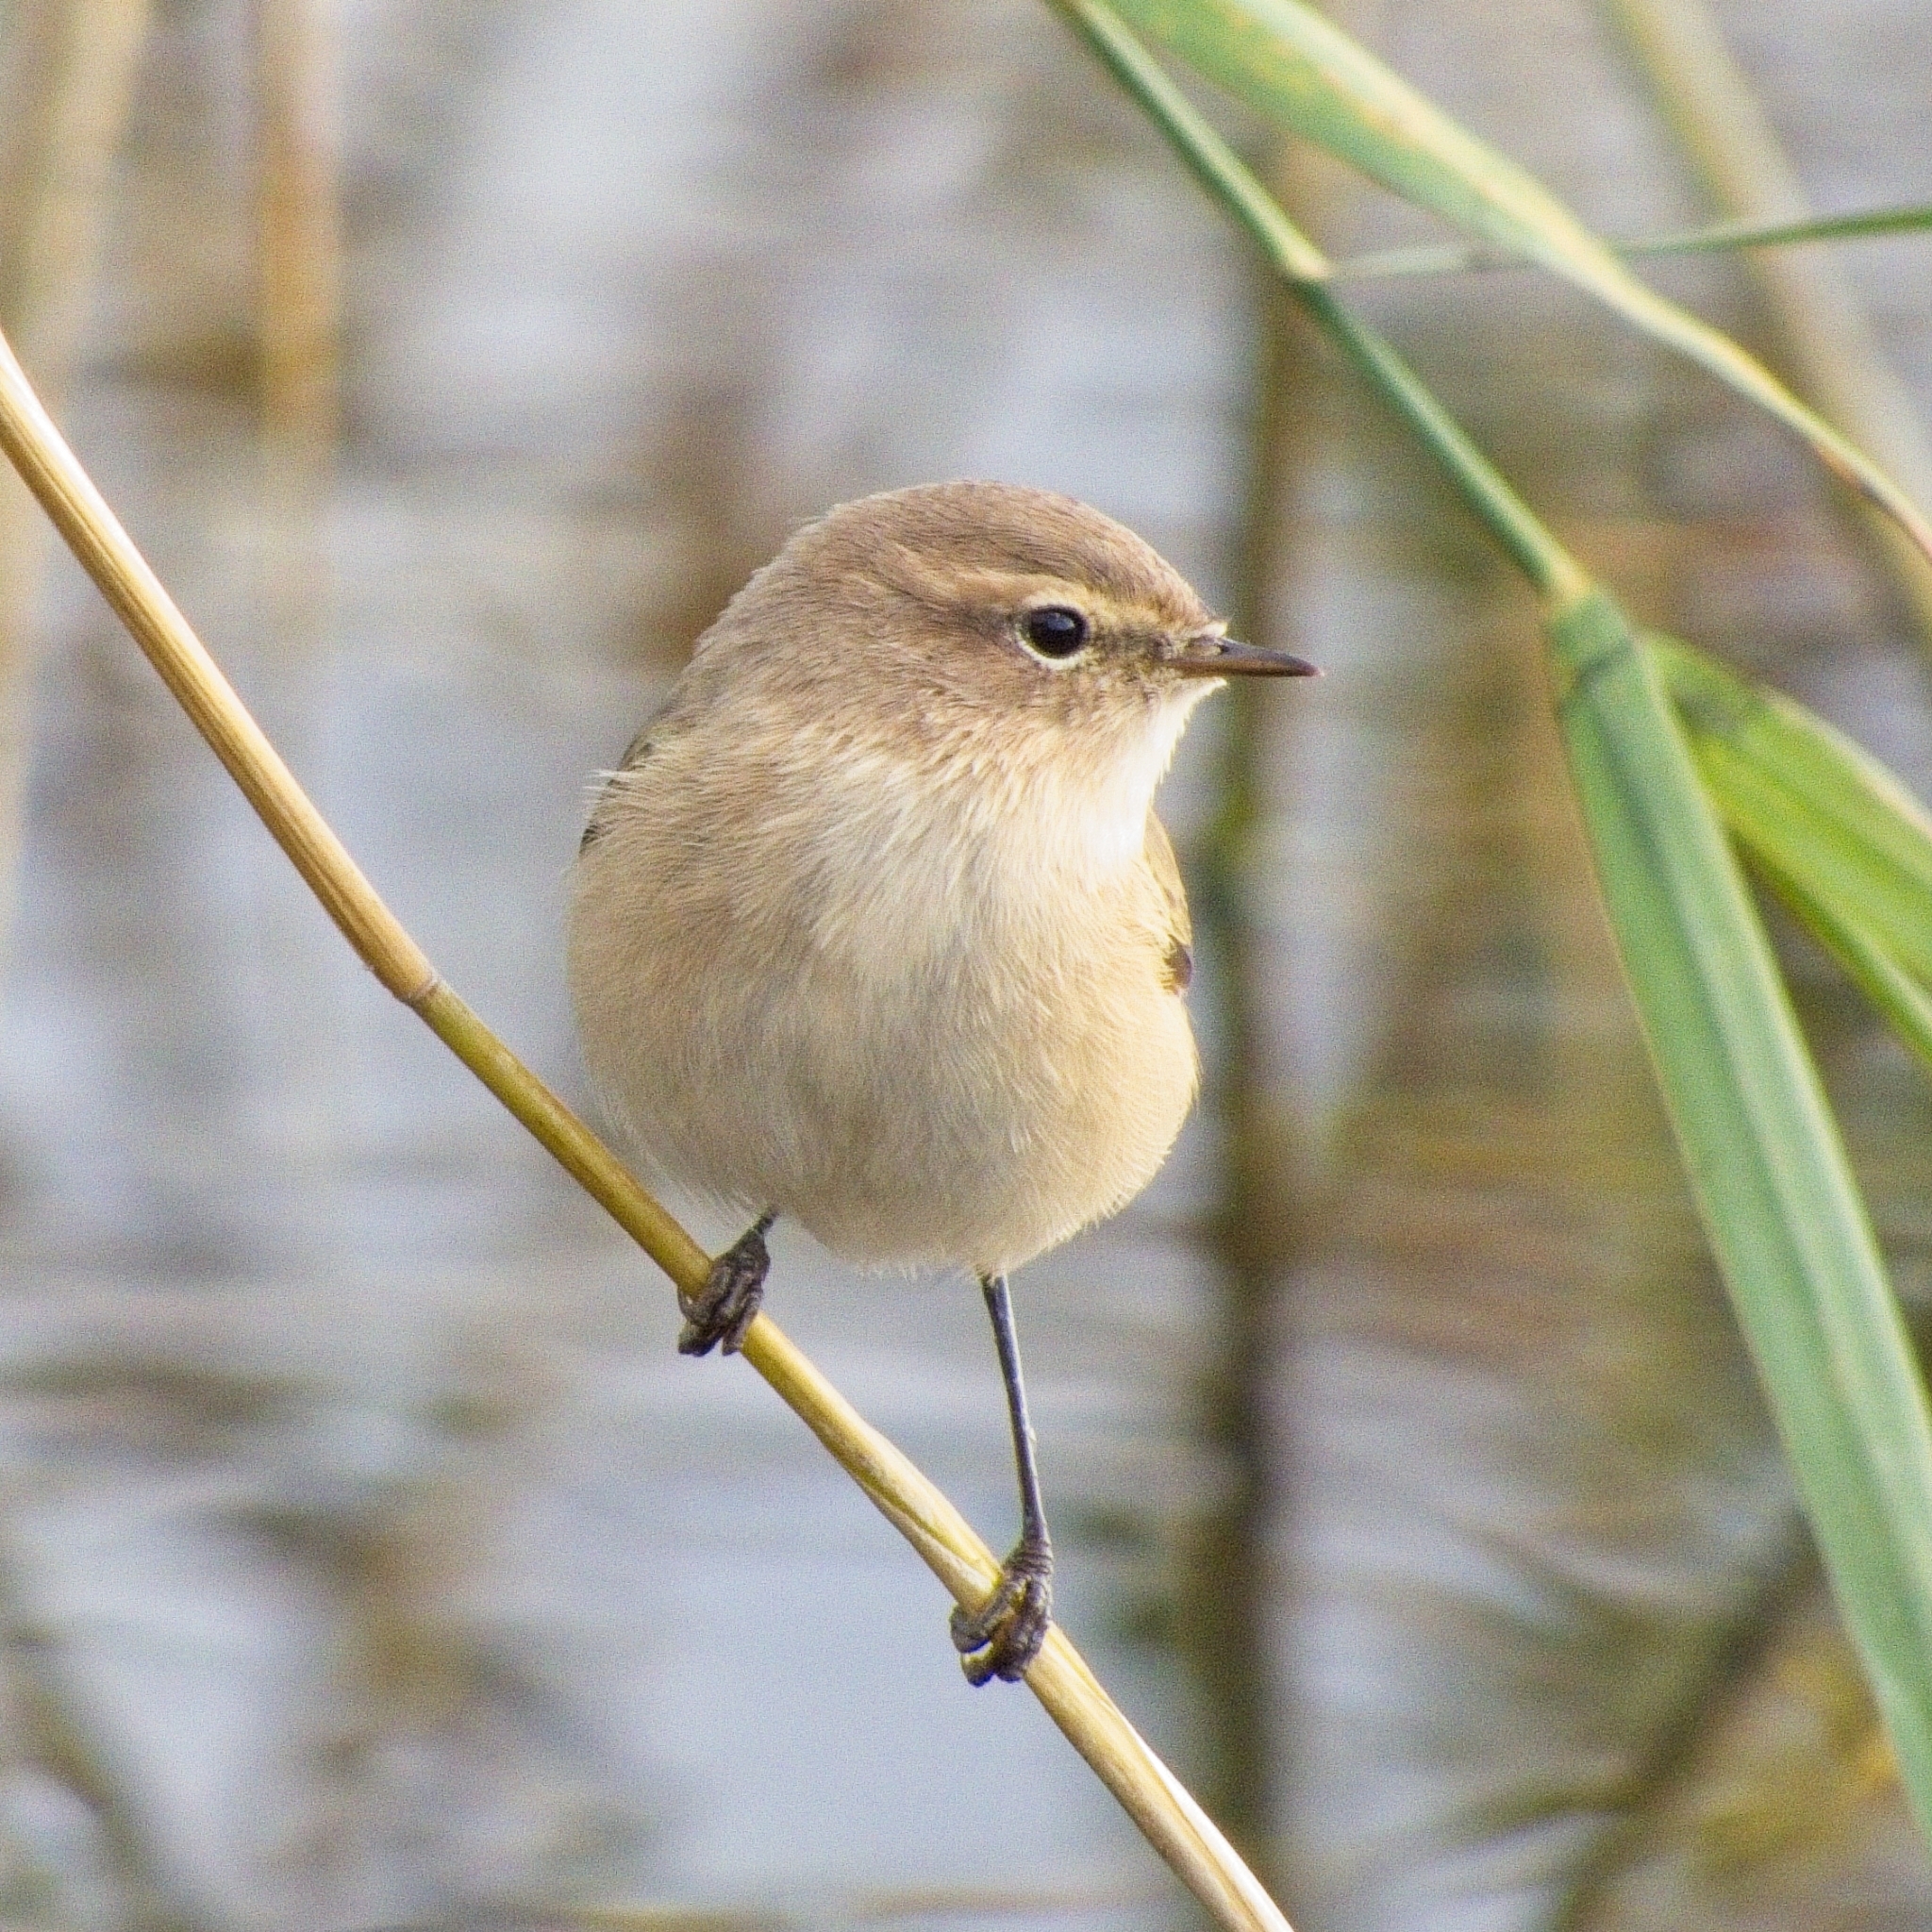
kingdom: Animalia
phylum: Chordata
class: Aves
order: Passeriformes
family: Phylloscopidae
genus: Phylloscopus
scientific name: Phylloscopus collybita
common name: Common chiffchaff
